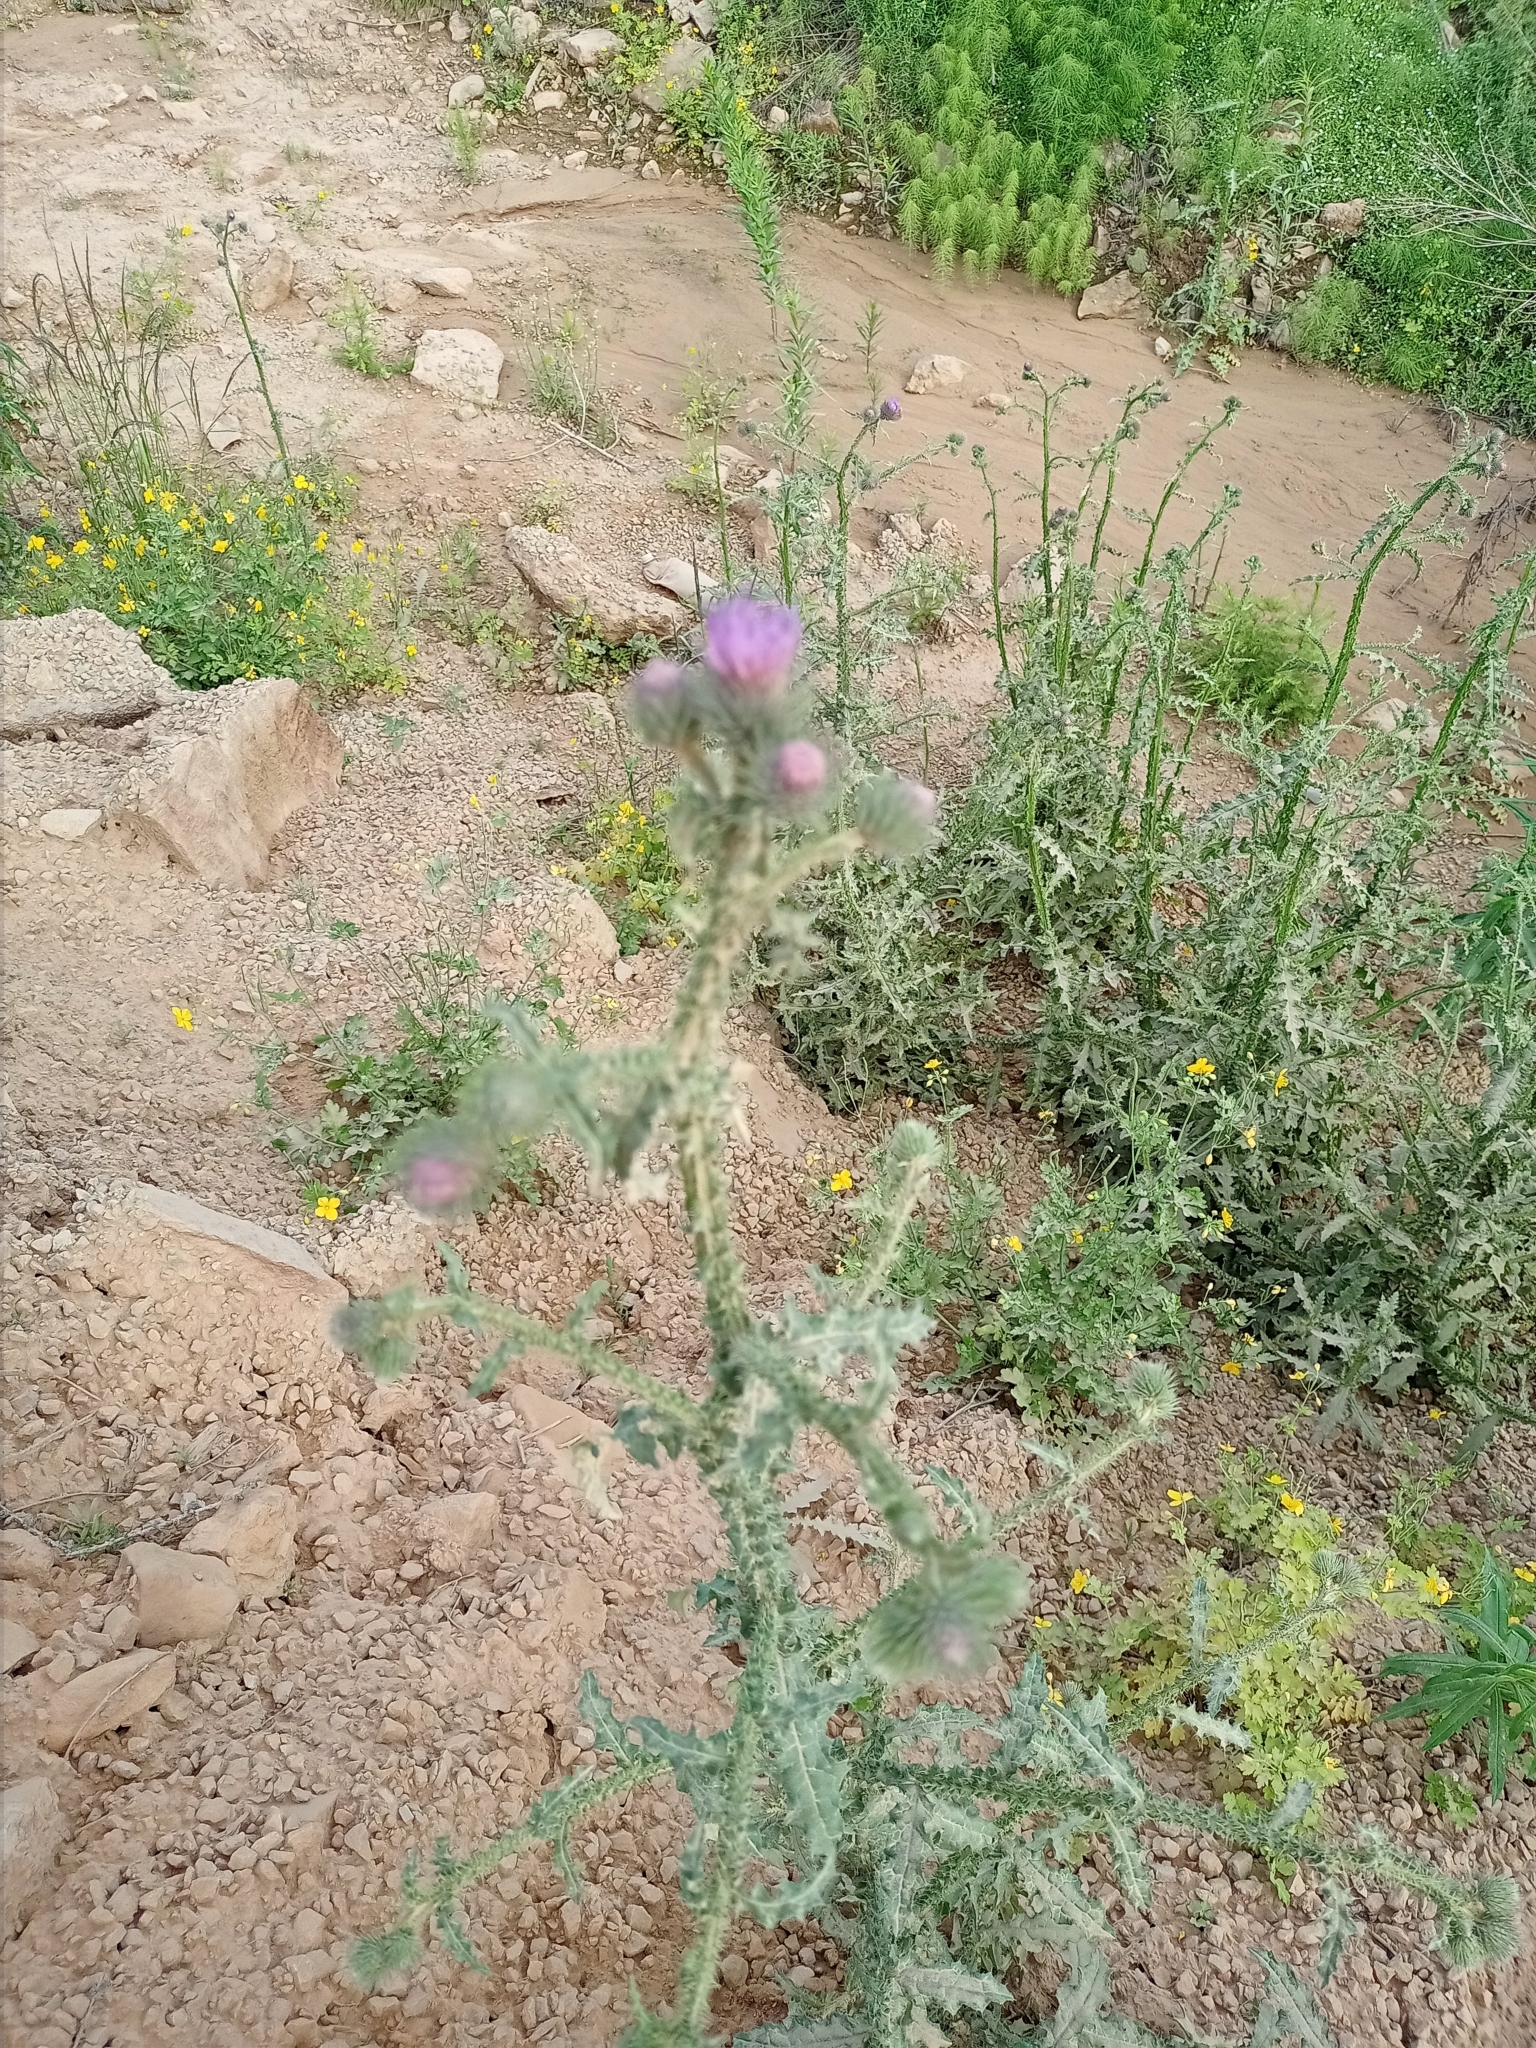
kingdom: Plantae
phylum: Tracheophyta
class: Magnoliopsida
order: Asterales
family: Asteraceae
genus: Carduus
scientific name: Carduus crispus
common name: Welted thistle
